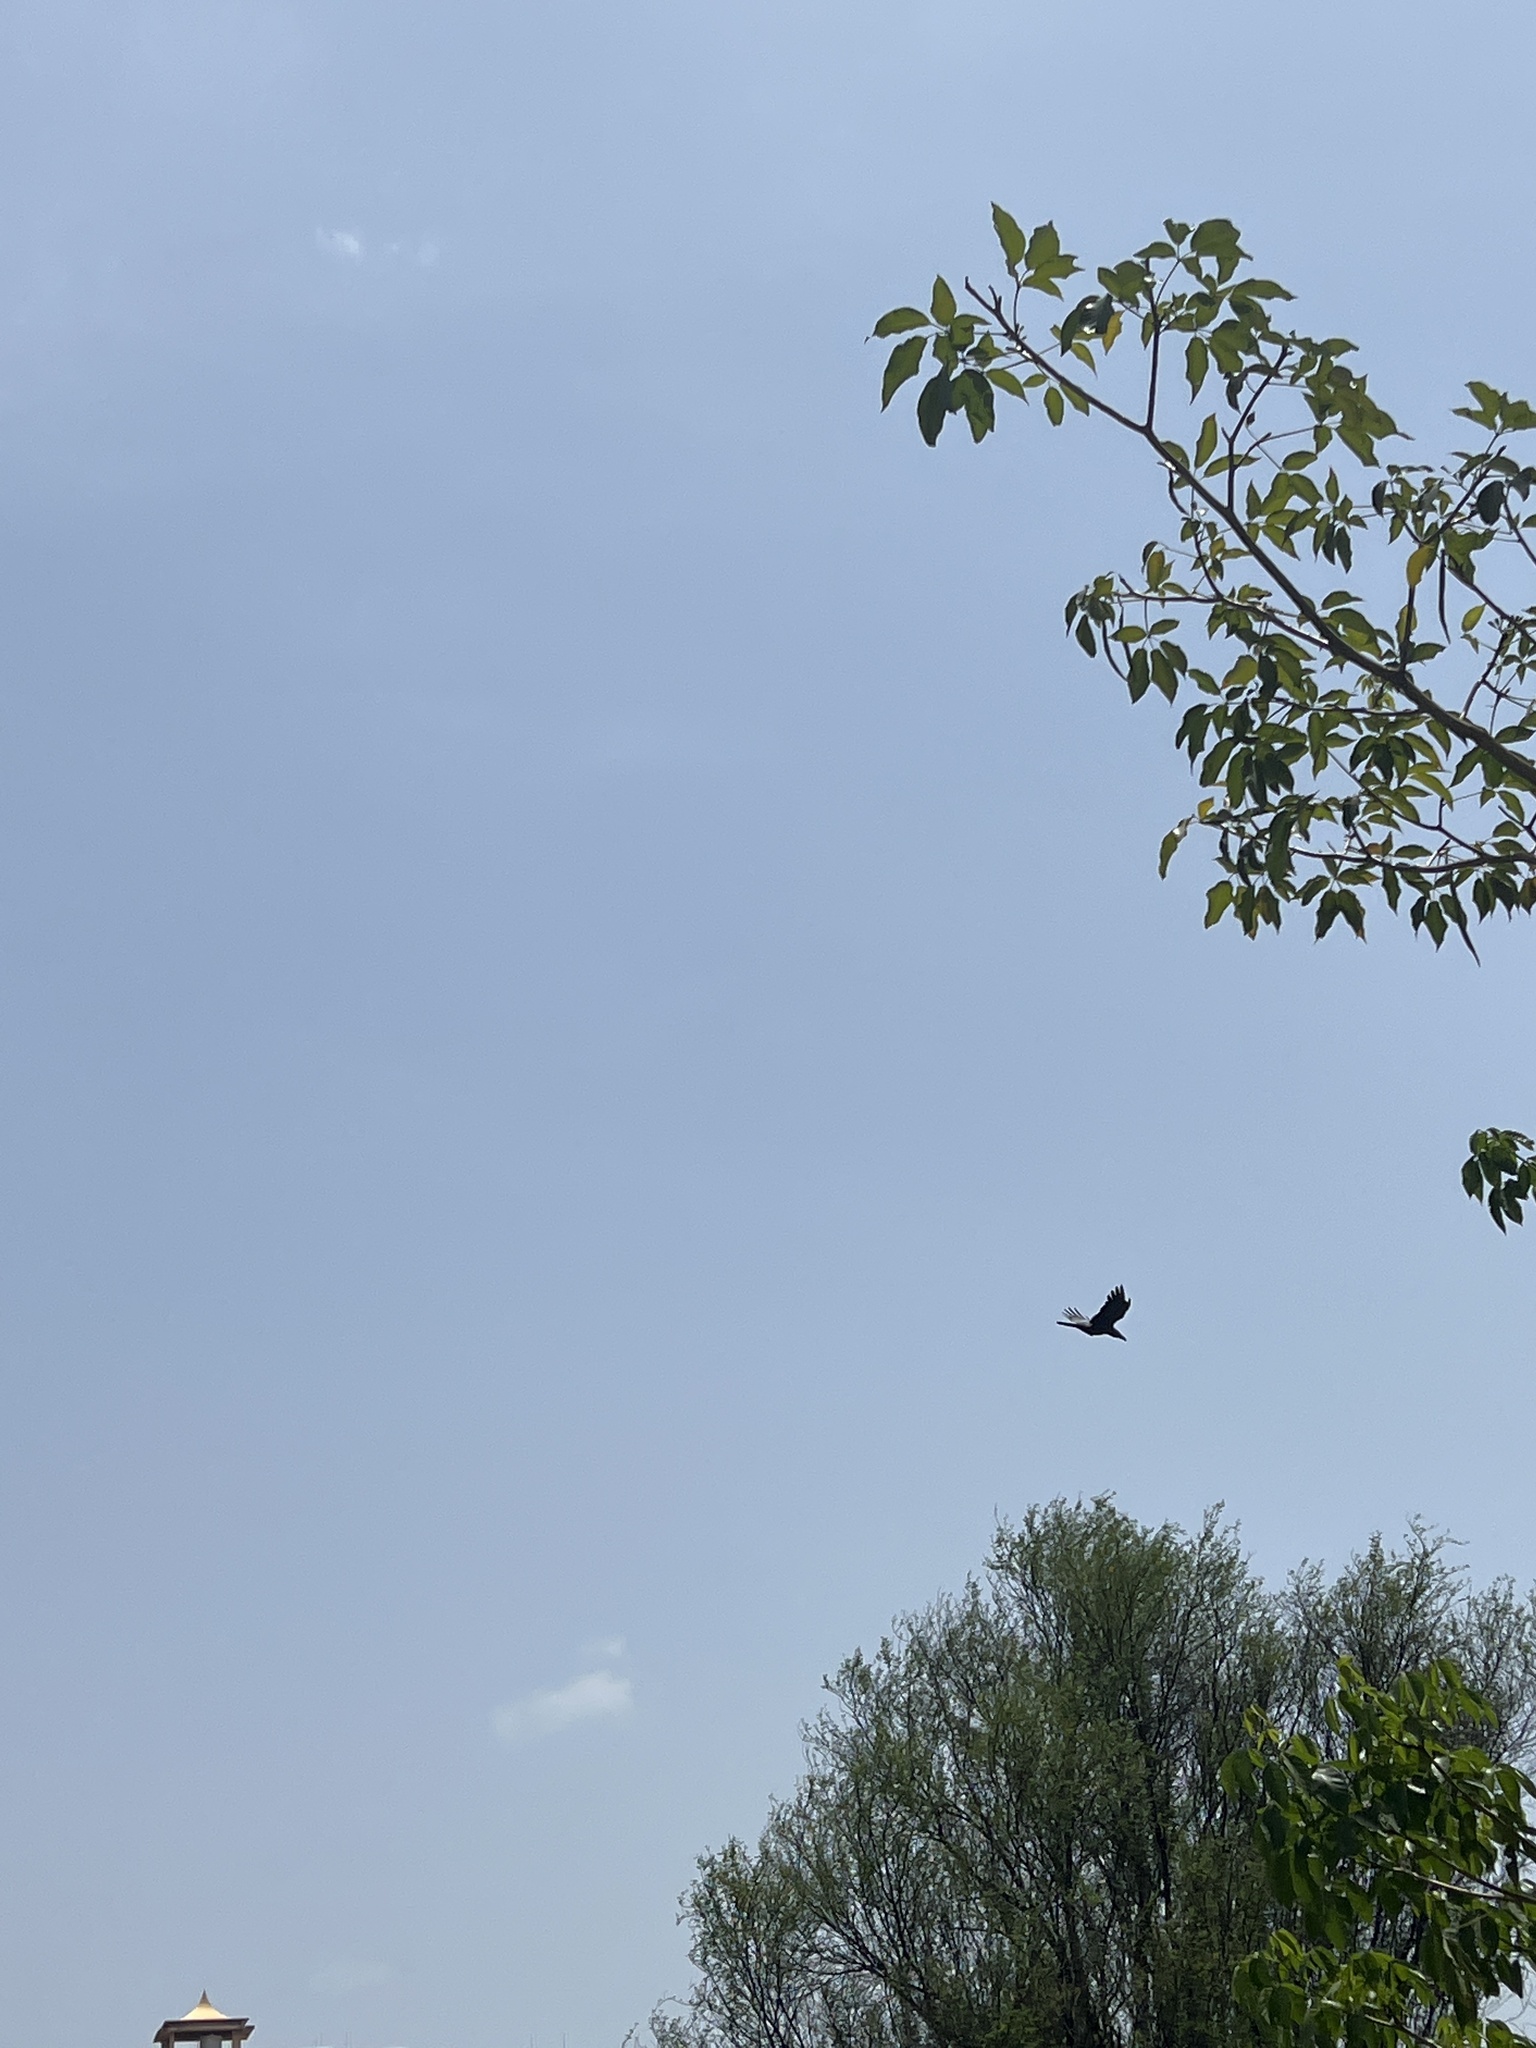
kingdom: Animalia
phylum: Chordata
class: Aves
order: Passeriformes
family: Corvidae
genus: Corvus
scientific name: Corvus macrorhynchos
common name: Large-billed crow
